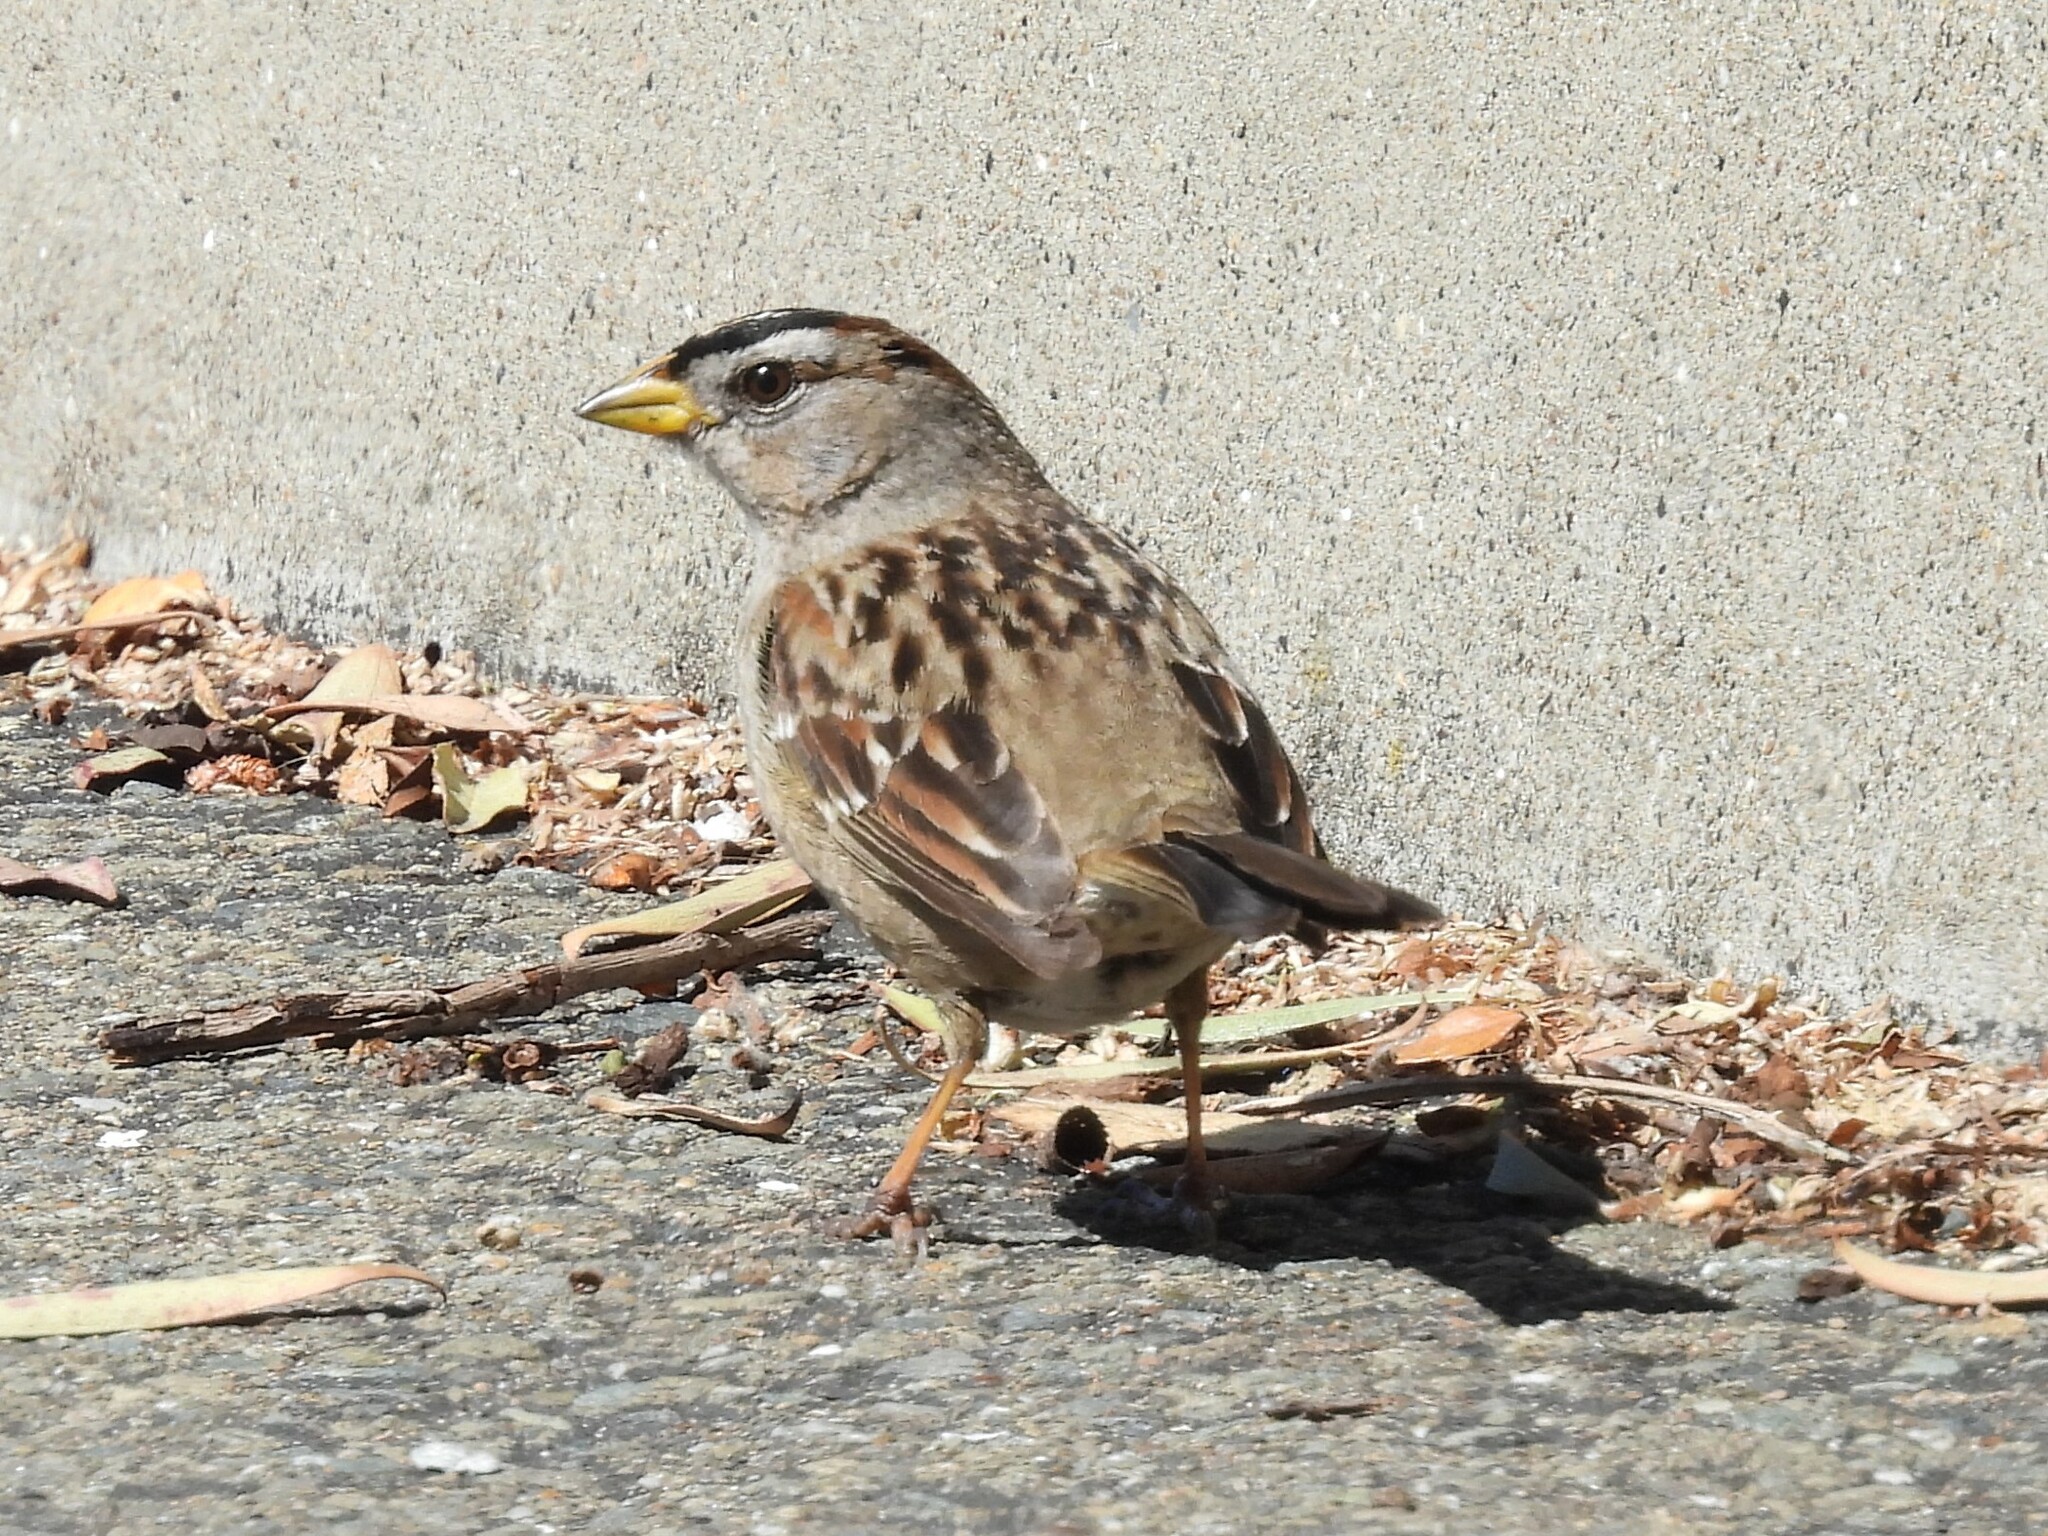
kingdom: Animalia
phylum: Chordata
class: Aves
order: Passeriformes
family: Passerellidae
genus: Zonotrichia
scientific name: Zonotrichia leucophrys
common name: White-crowned sparrow
